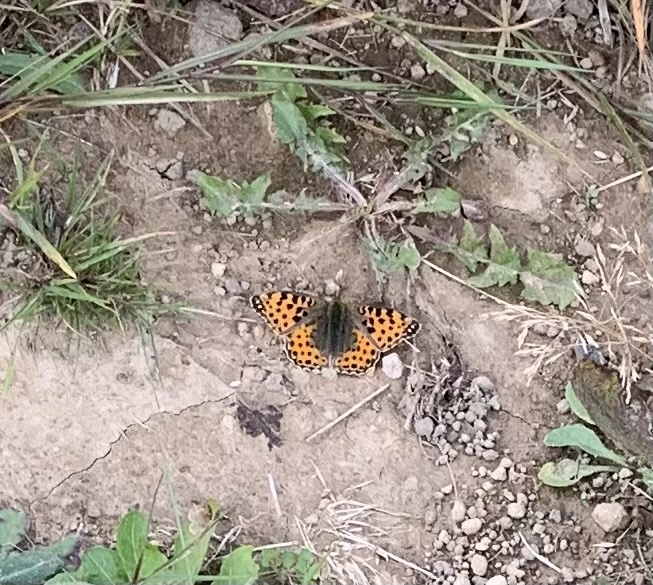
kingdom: Animalia
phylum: Arthropoda
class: Insecta
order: Lepidoptera
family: Nymphalidae
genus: Issoria
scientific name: Issoria lathonia
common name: Queen of spain fritillary
